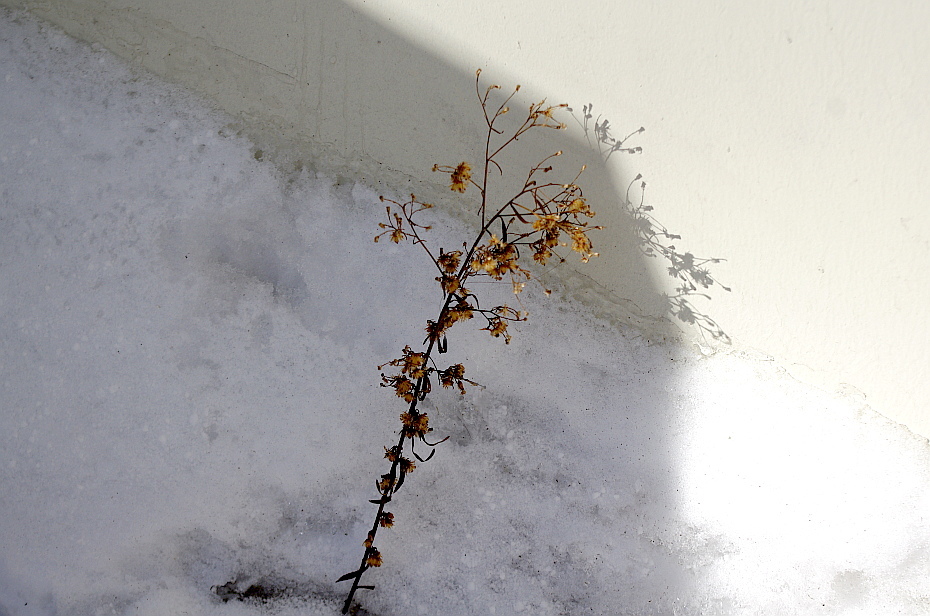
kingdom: Plantae
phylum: Tracheophyta
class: Magnoliopsida
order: Asterales
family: Asteraceae
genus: Erigeron
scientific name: Erigeron canadensis
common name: Canadian fleabane
